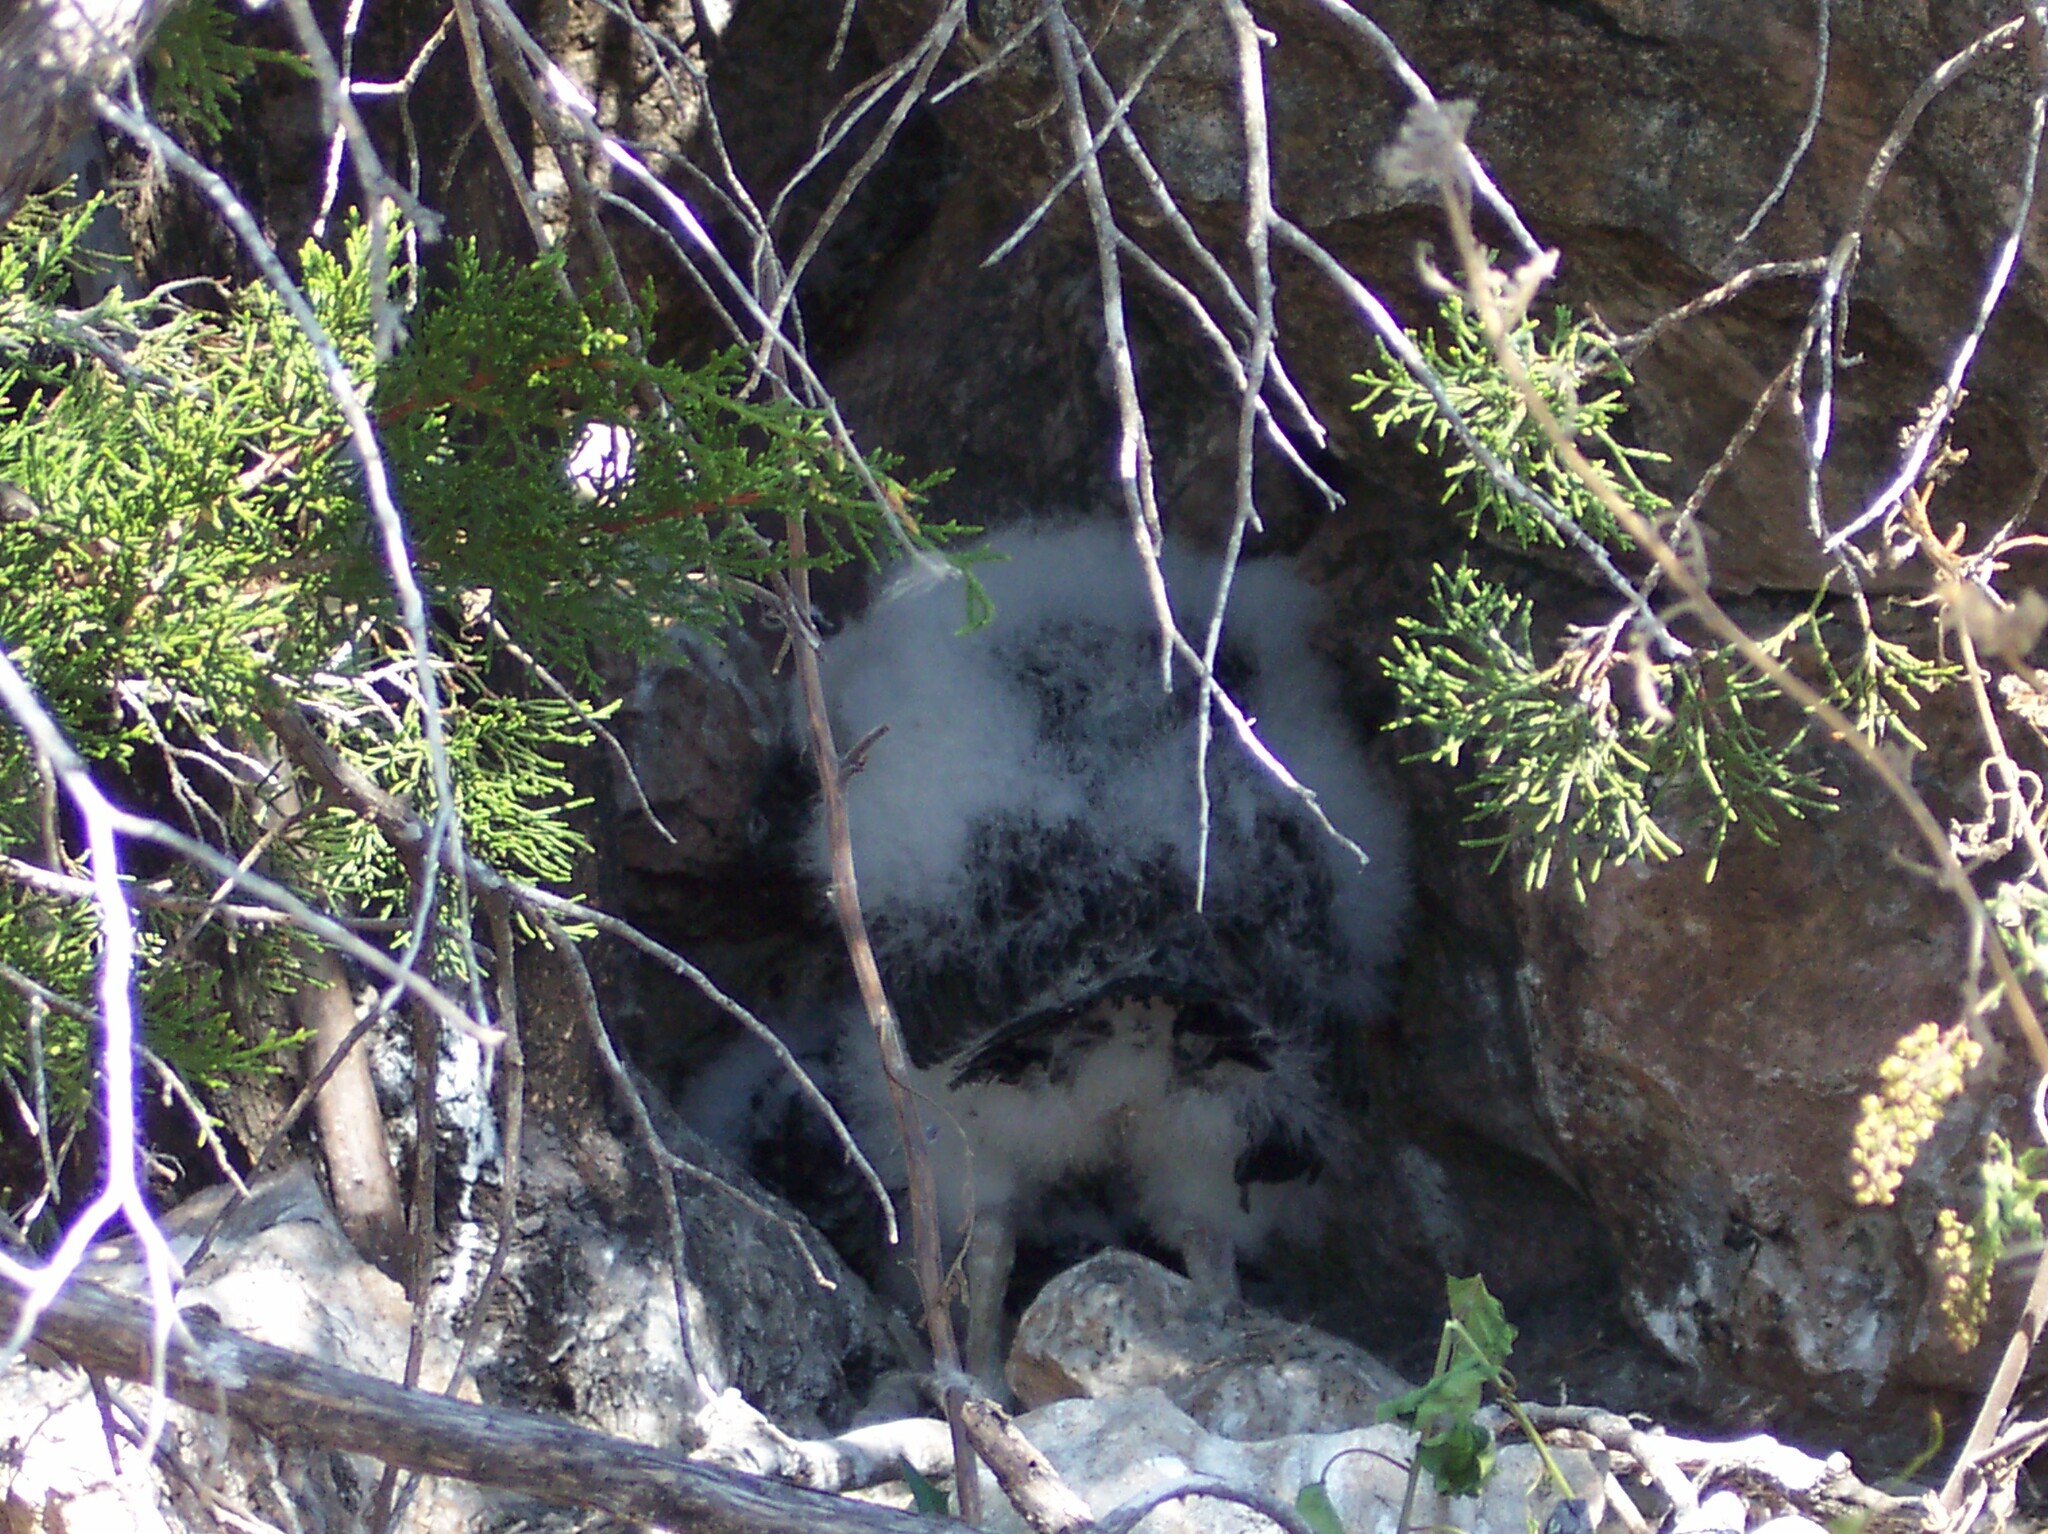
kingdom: Animalia
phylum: Chordata
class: Aves
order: Accipitriformes
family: Cathartidae
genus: Cathartes
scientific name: Cathartes aura
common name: Turkey vulture
